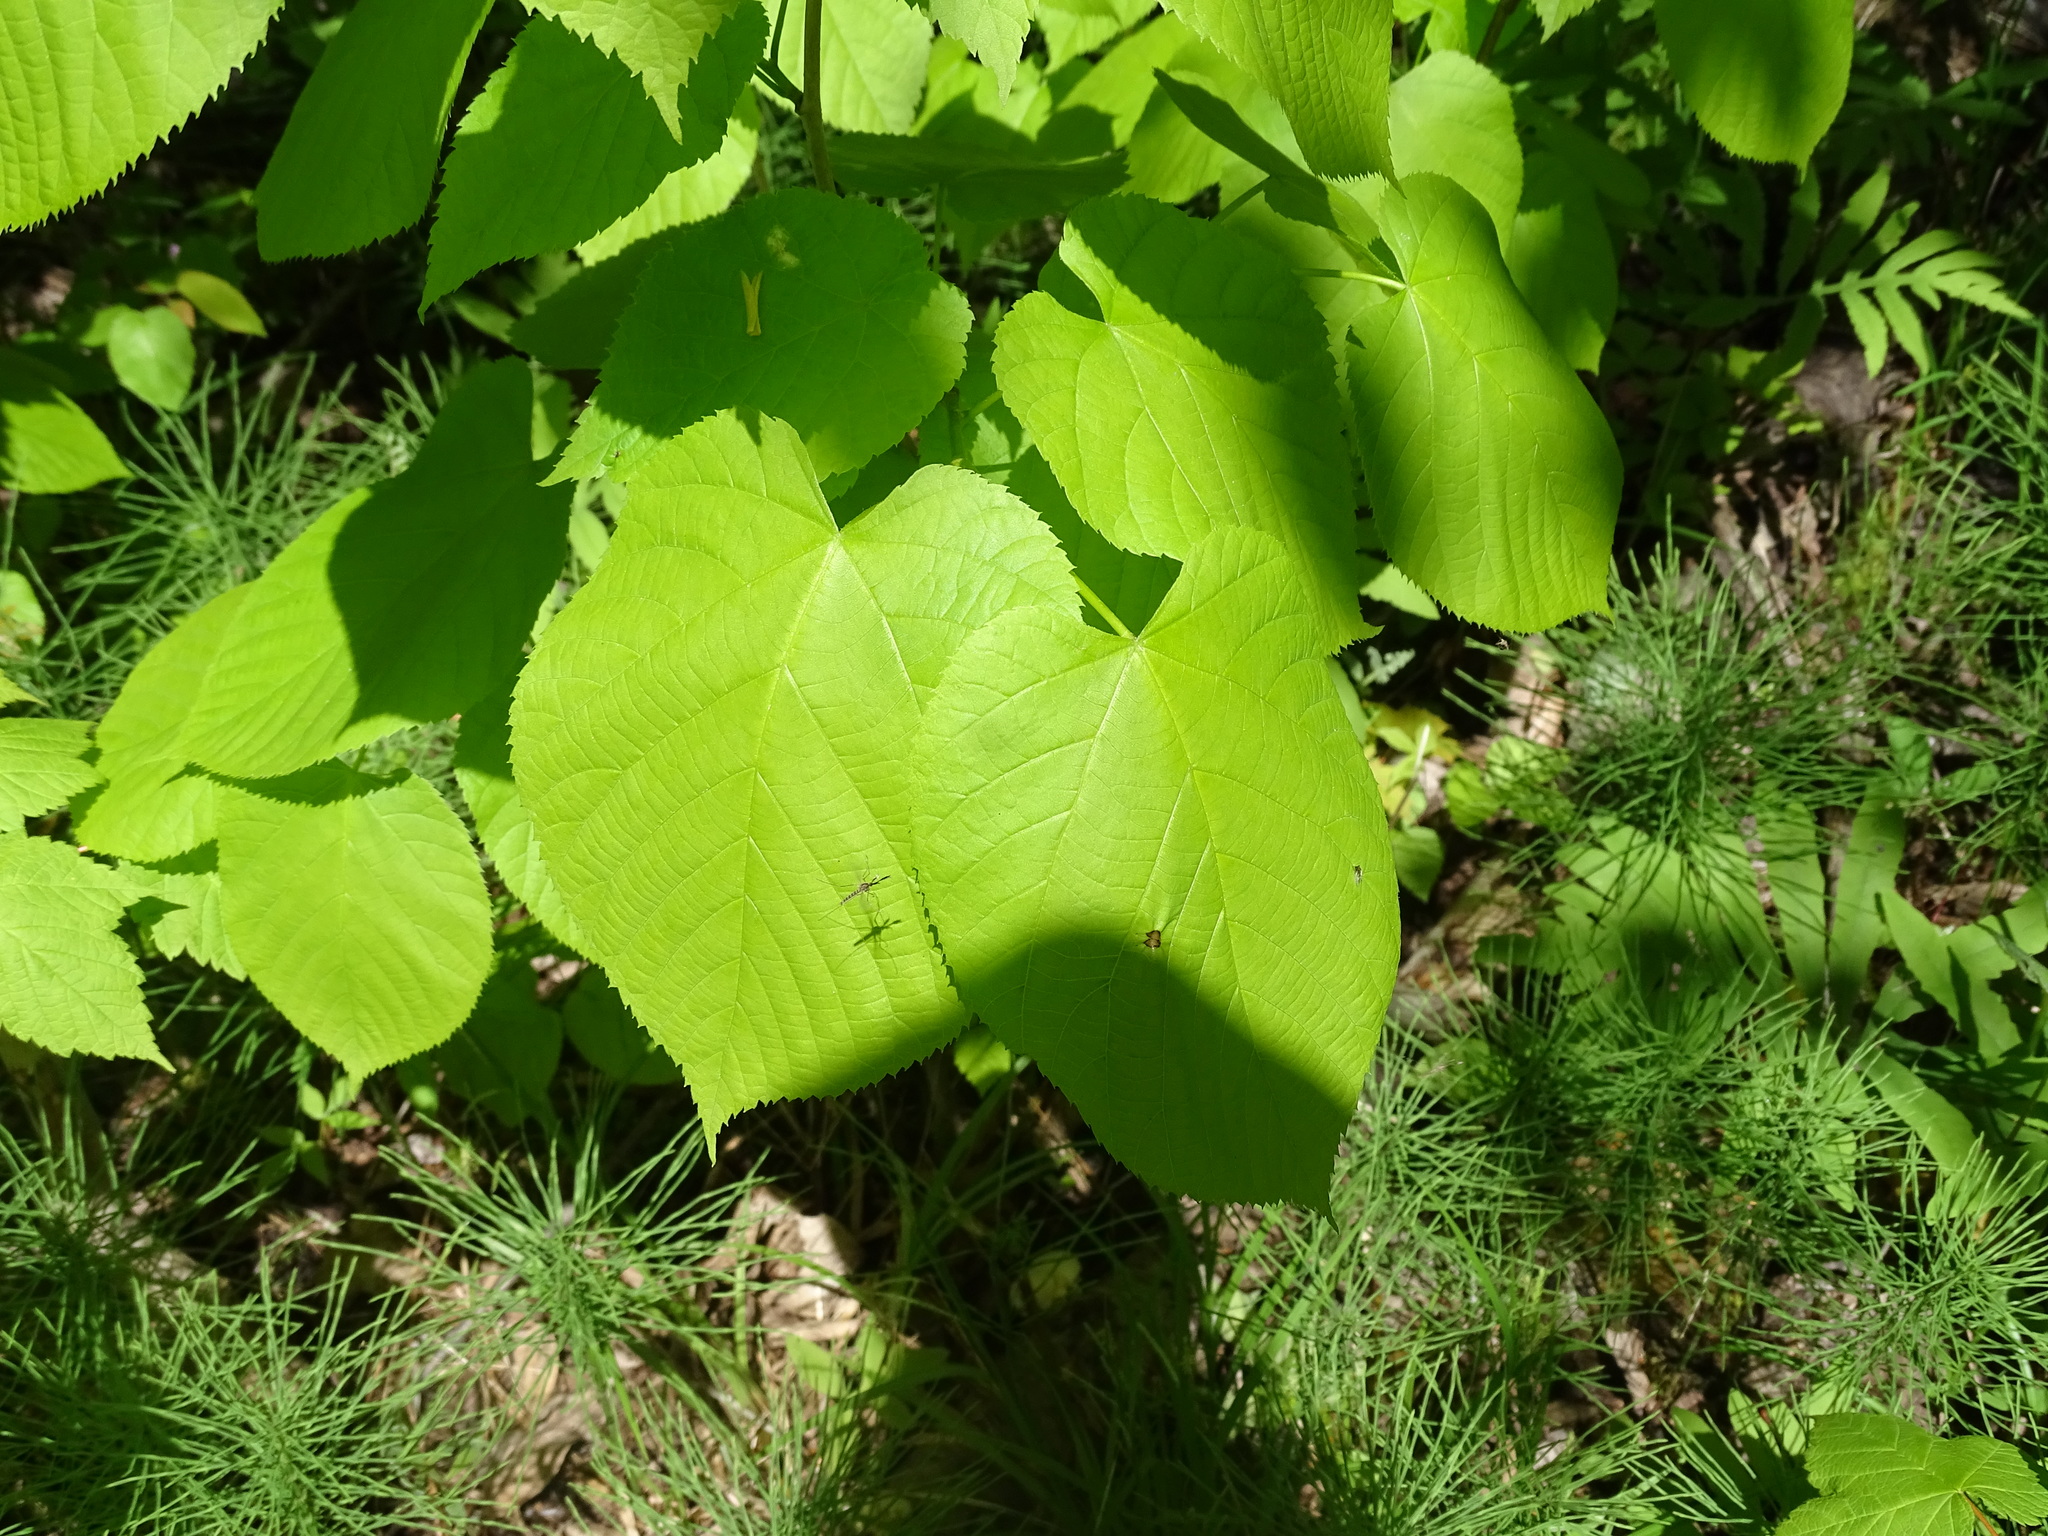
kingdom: Plantae
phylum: Tracheophyta
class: Magnoliopsida
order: Malvales
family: Malvaceae
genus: Tilia
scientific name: Tilia americana
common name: Basswood
